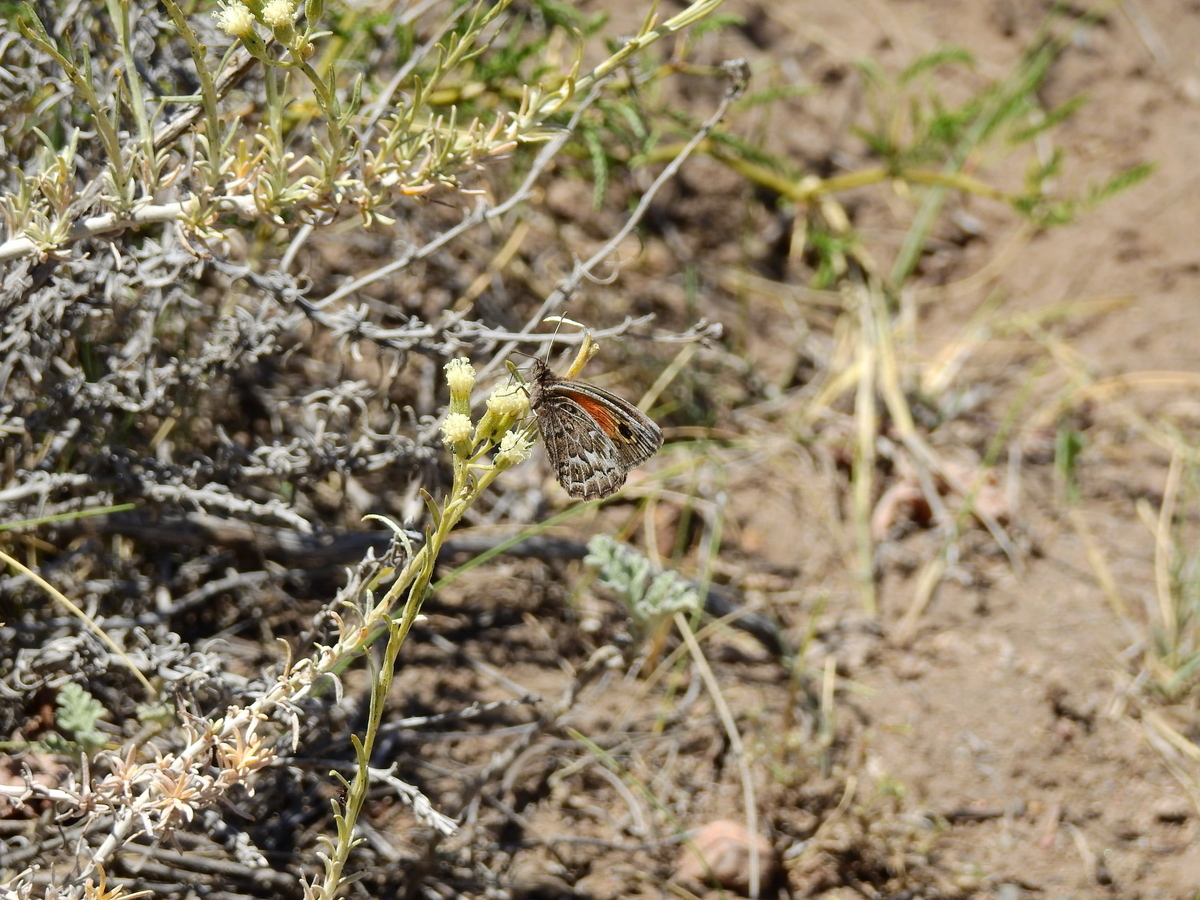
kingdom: Plantae
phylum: Tracheophyta
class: Magnoliopsida
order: Asterales
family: Asteraceae
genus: Senecio
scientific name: Senecio filaginoides
